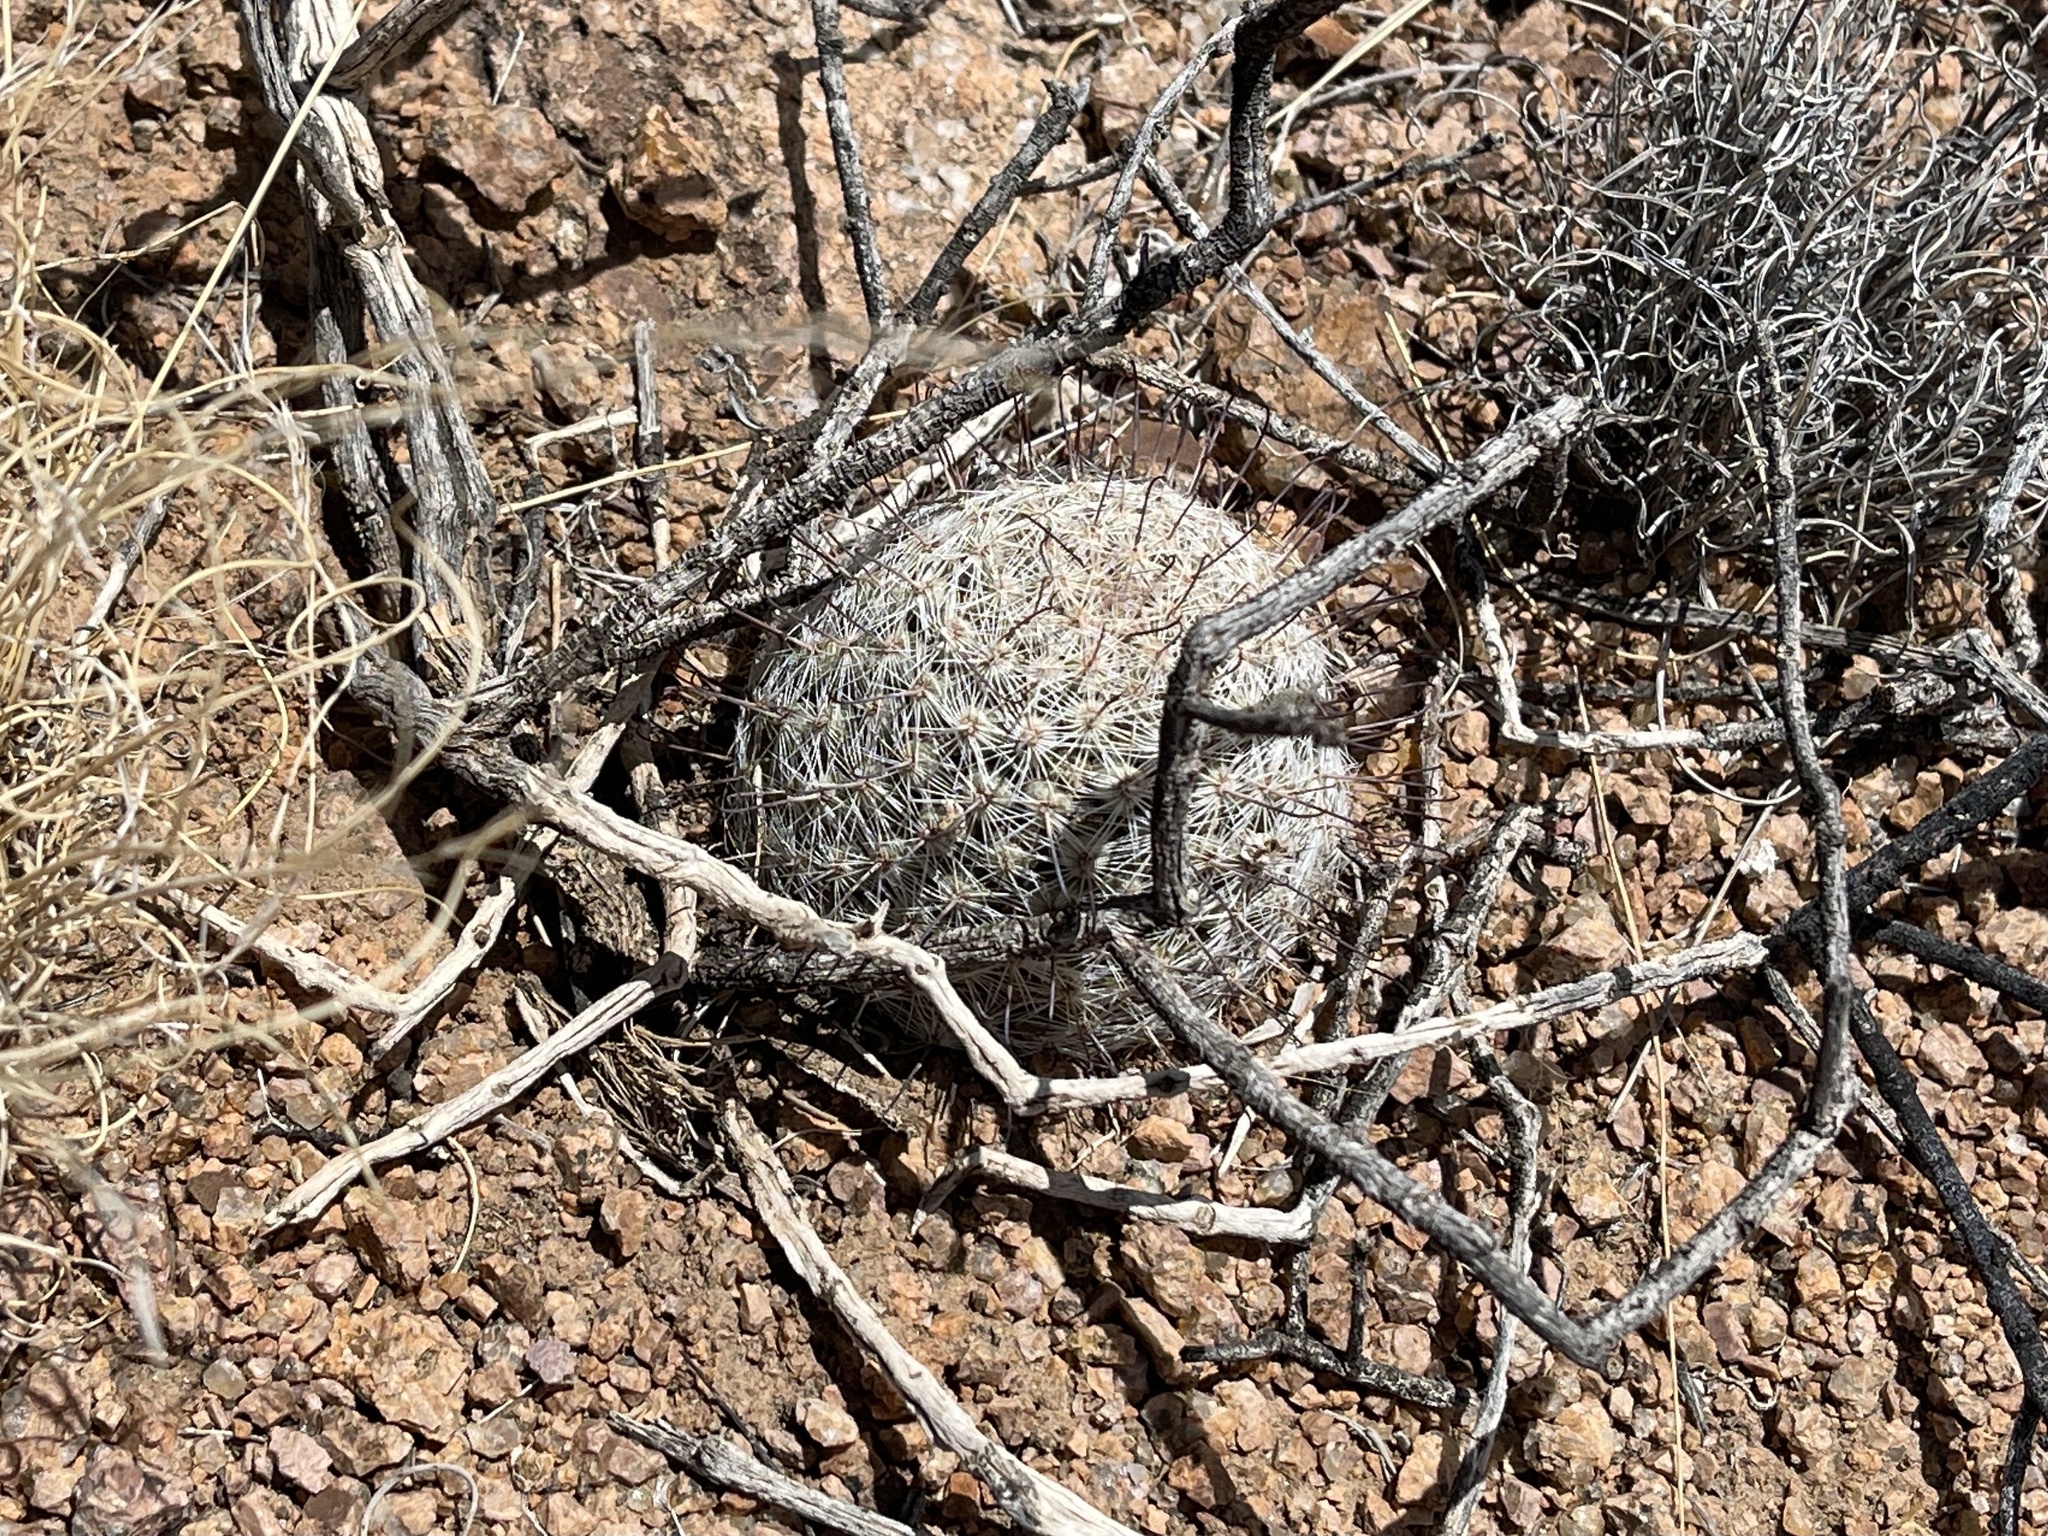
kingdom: Plantae
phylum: Tracheophyta
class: Magnoliopsida
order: Caryophyllales
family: Cactaceae
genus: Cochemiea
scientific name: Cochemiea grahamii
